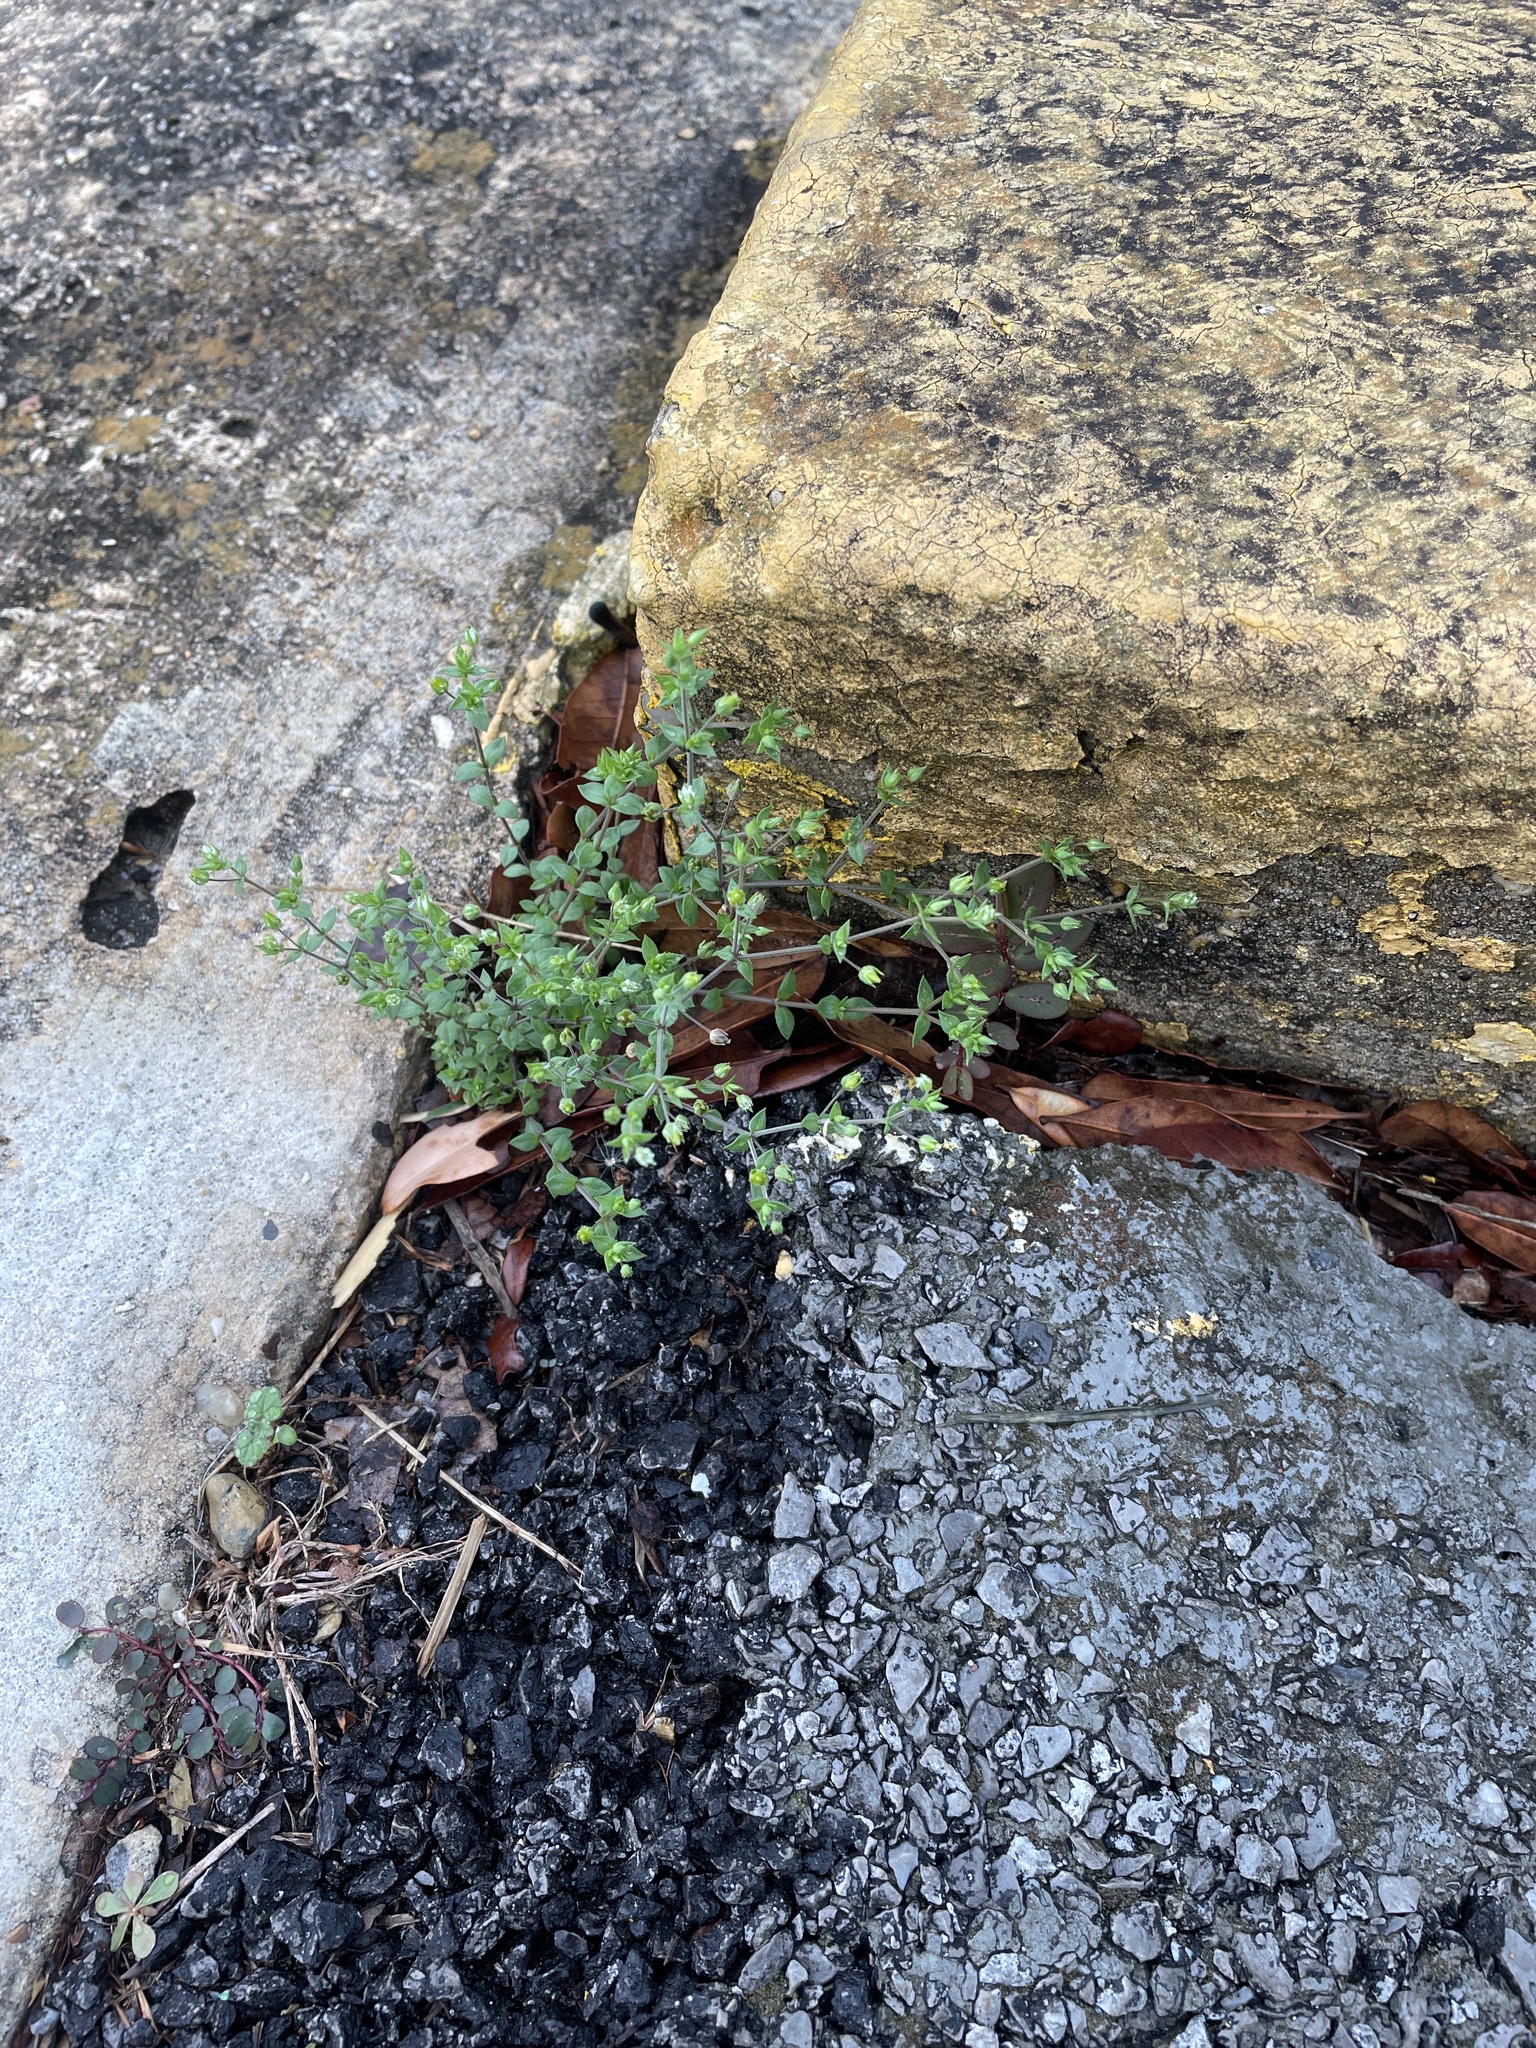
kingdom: Plantae
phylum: Tracheophyta
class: Magnoliopsida
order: Caryophyllales
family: Caryophyllaceae
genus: Arenaria
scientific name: Arenaria serpyllifolia
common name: Thyme-leaved sandwort
